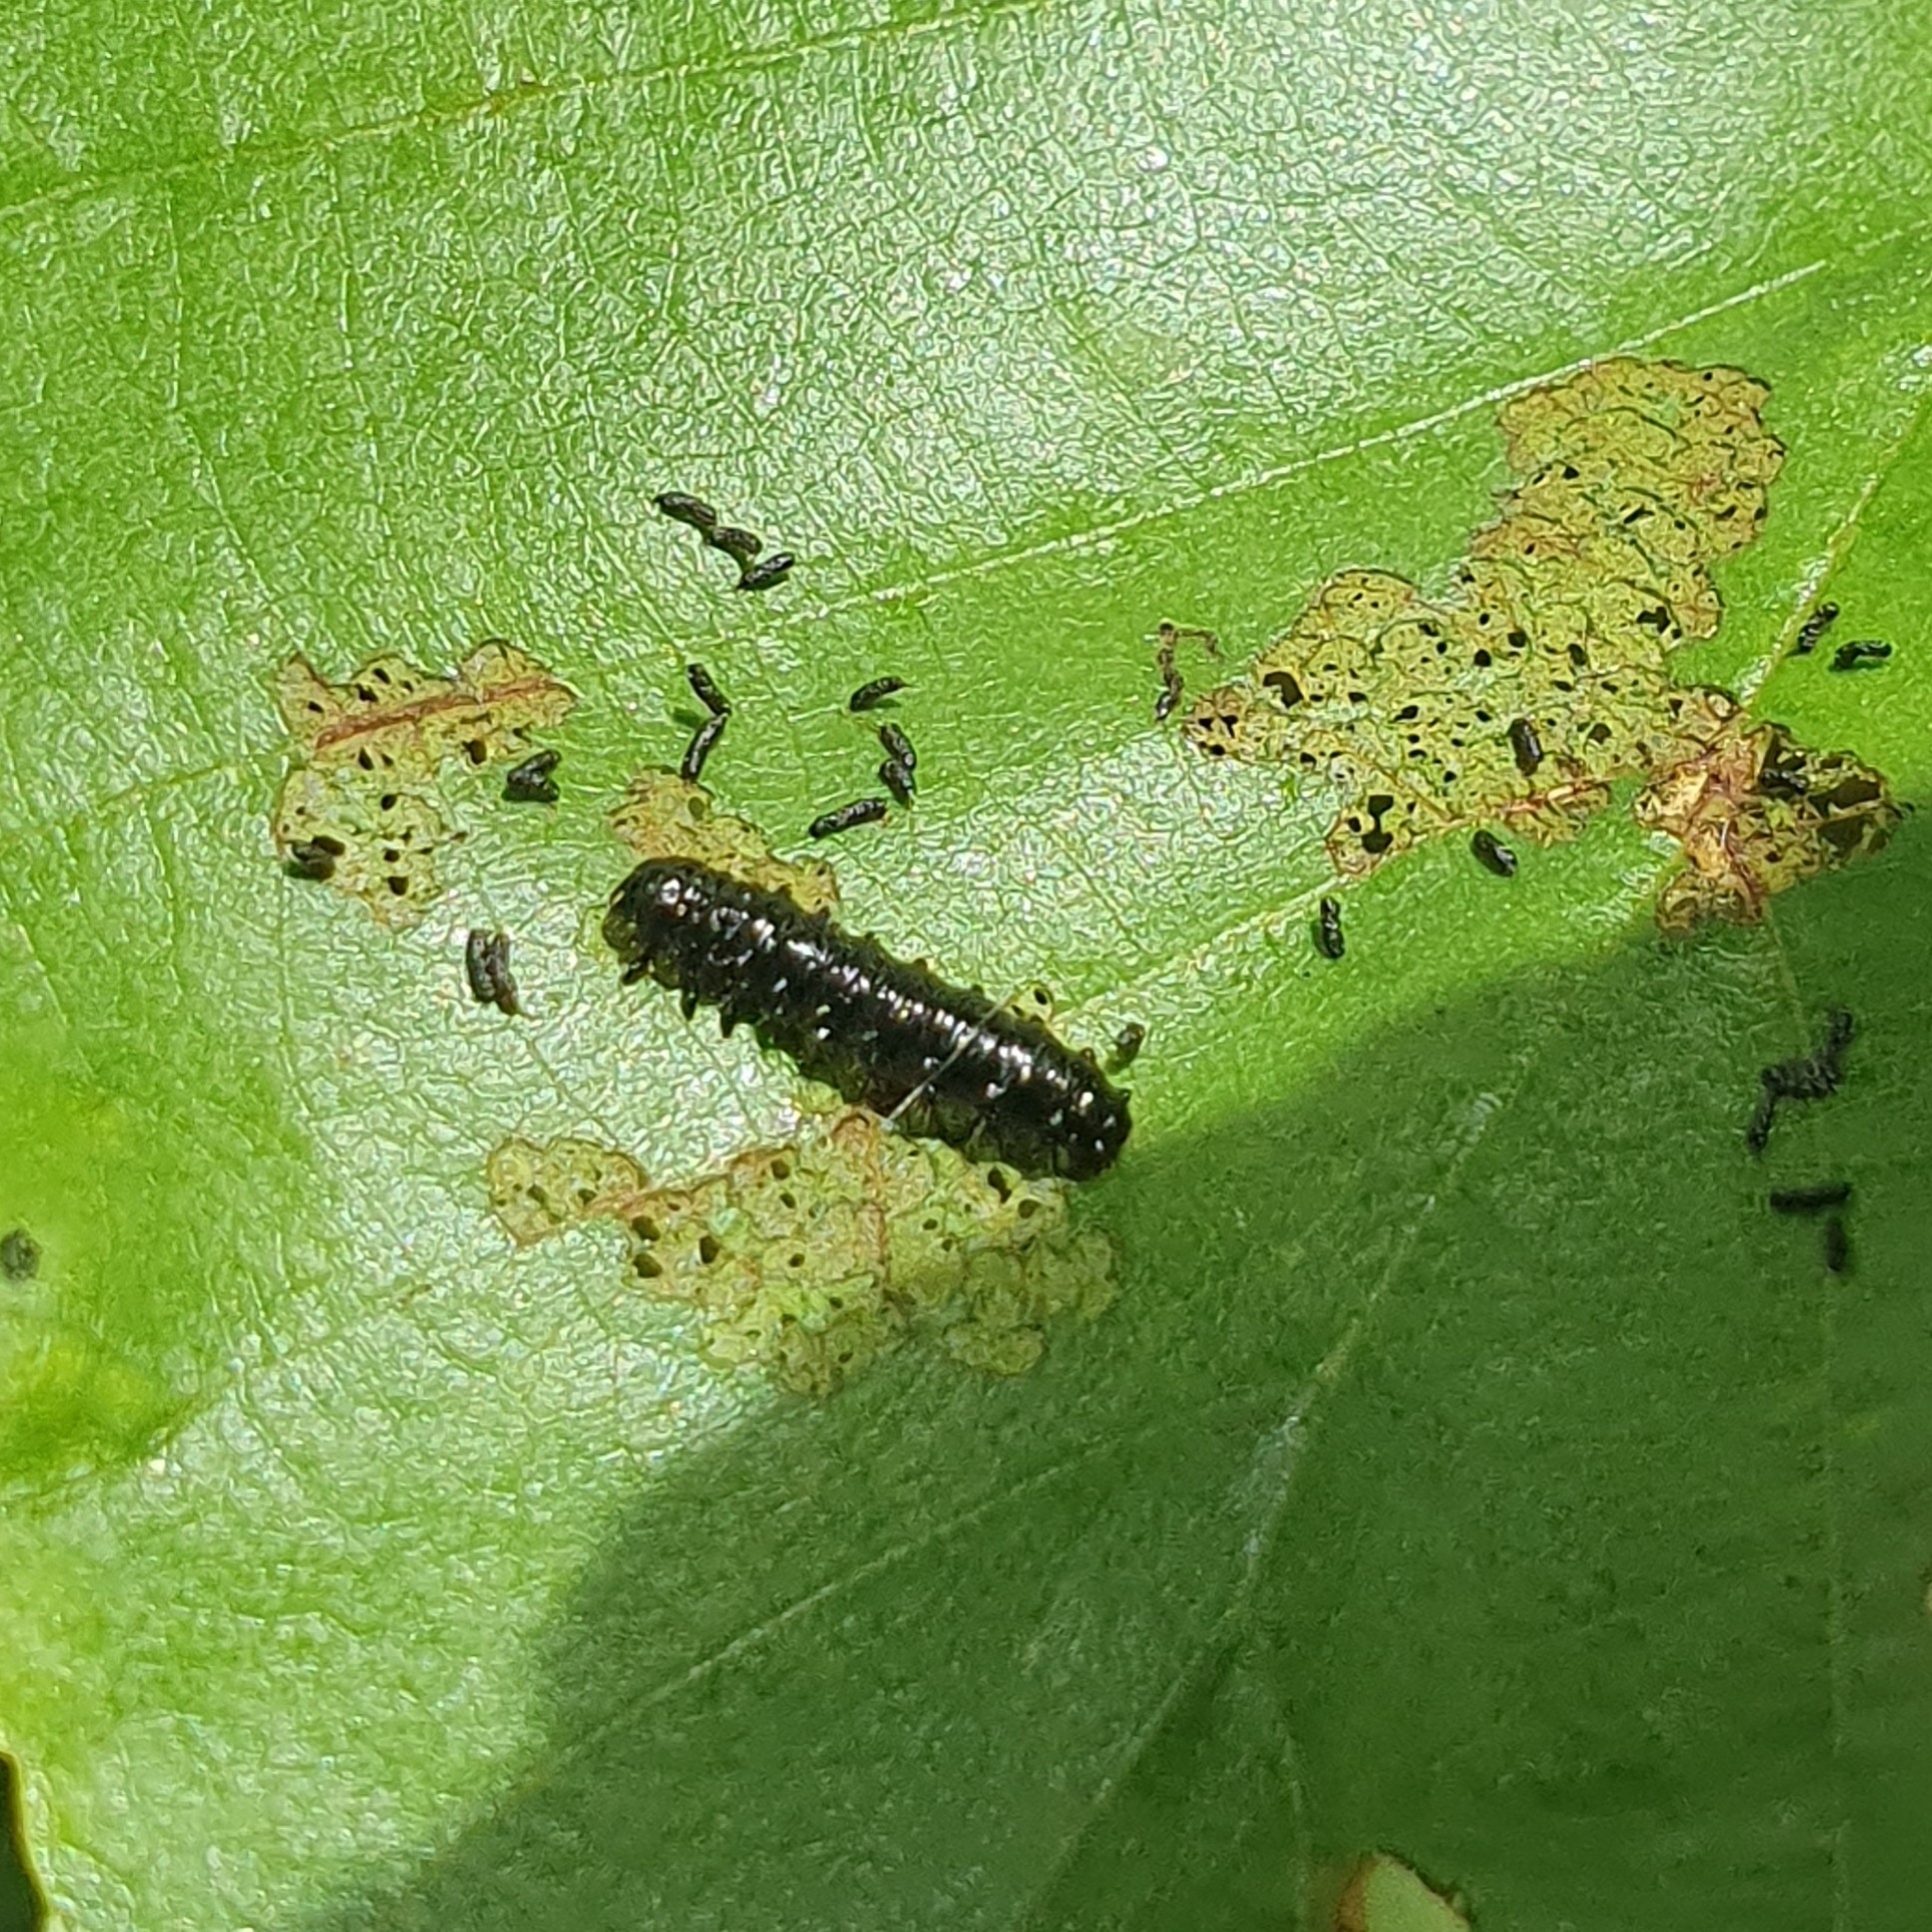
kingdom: Animalia
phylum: Arthropoda
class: Insecta
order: Coleoptera
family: Chrysomelidae
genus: Agelastica
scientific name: Agelastica alni
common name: Alder leaf beetle
